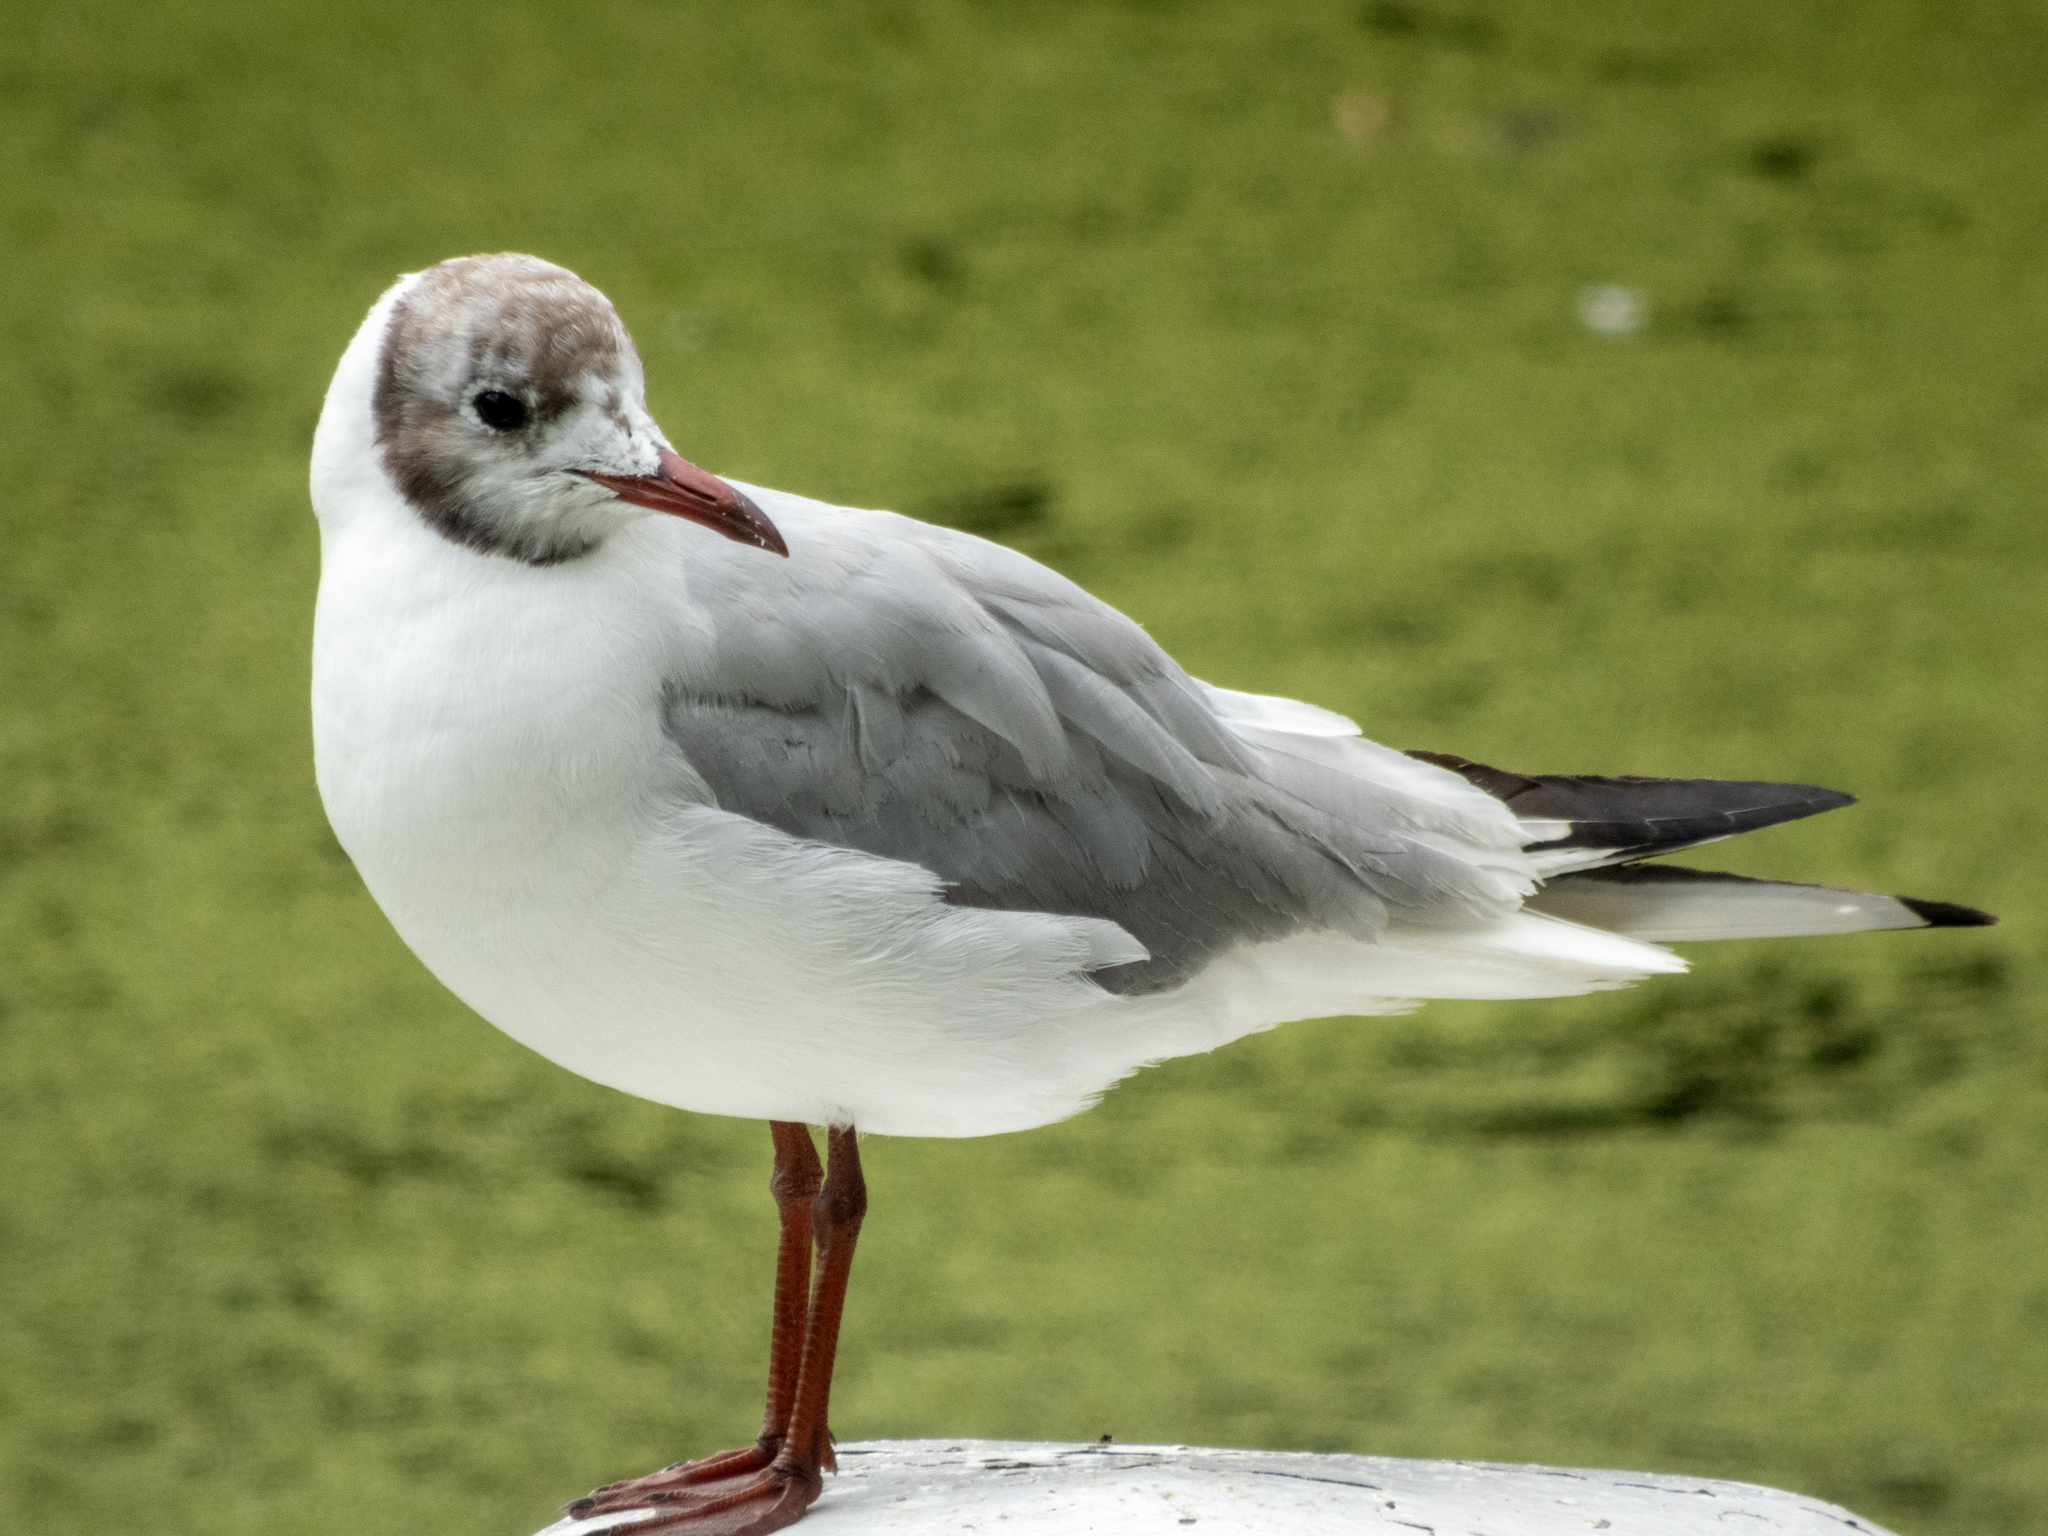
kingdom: Animalia
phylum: Chordata
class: Aves
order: Charadriiformes
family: Laridae
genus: Chroicocephalus
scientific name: Chroicocephalus ridibundus
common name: Black-headed gull
